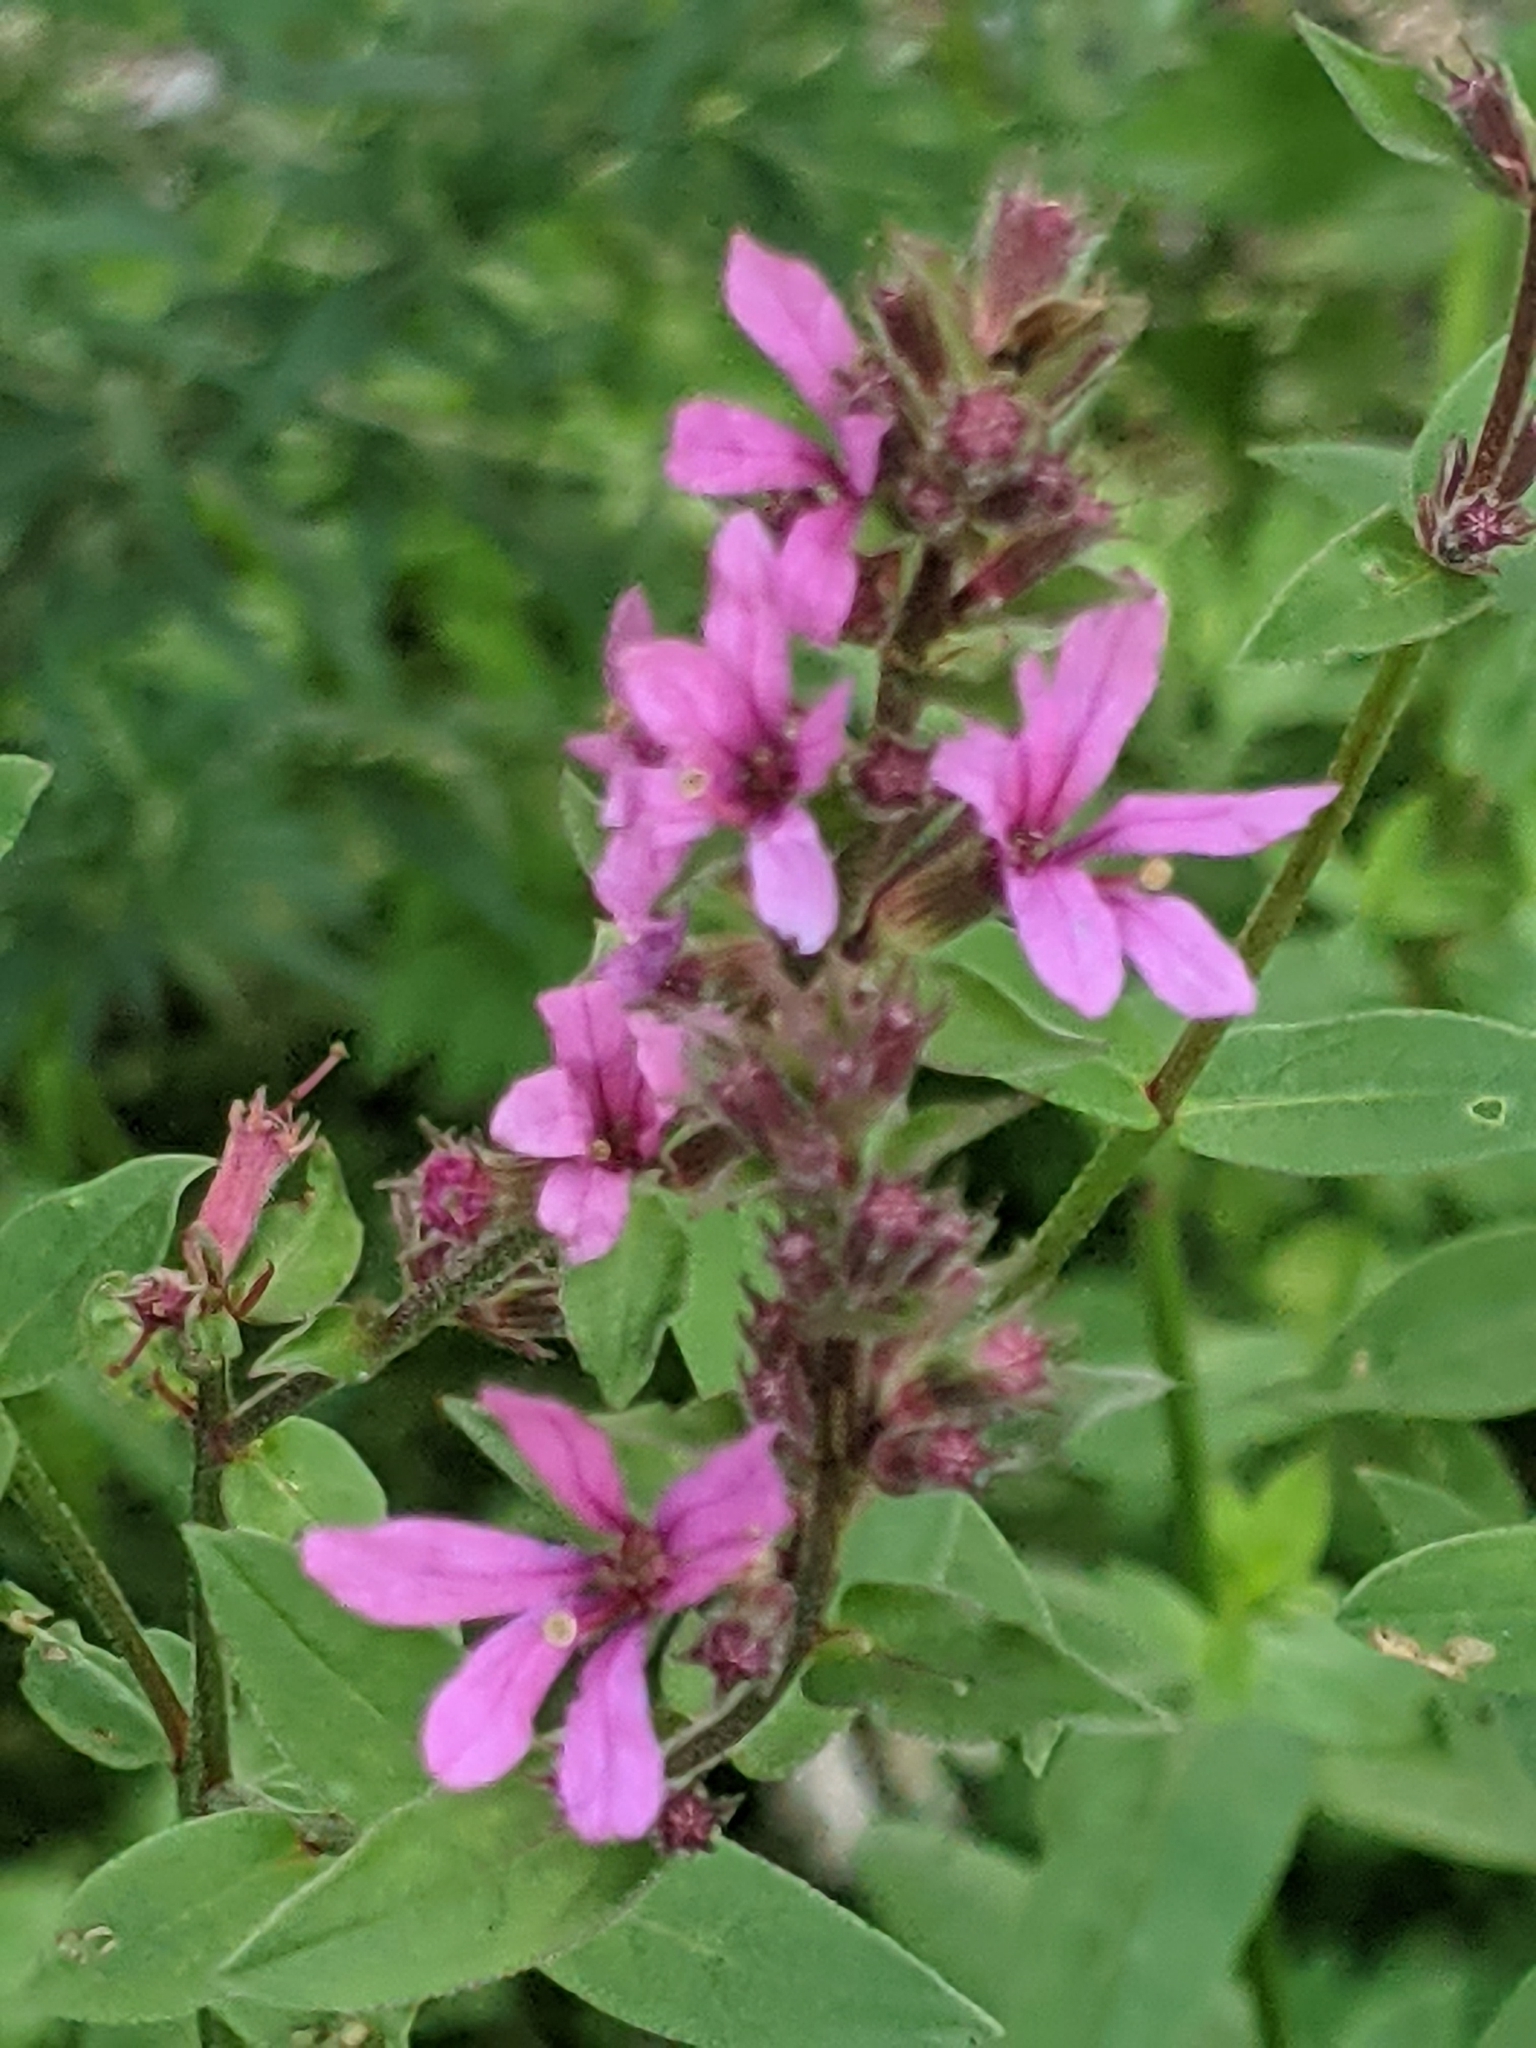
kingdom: Plantae
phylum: Tracheophyta
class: Magnoliopsida
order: Myrtales
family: Lythraceae
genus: Lythrum
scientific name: Lythrum salicaria
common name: Purple loosestrife
